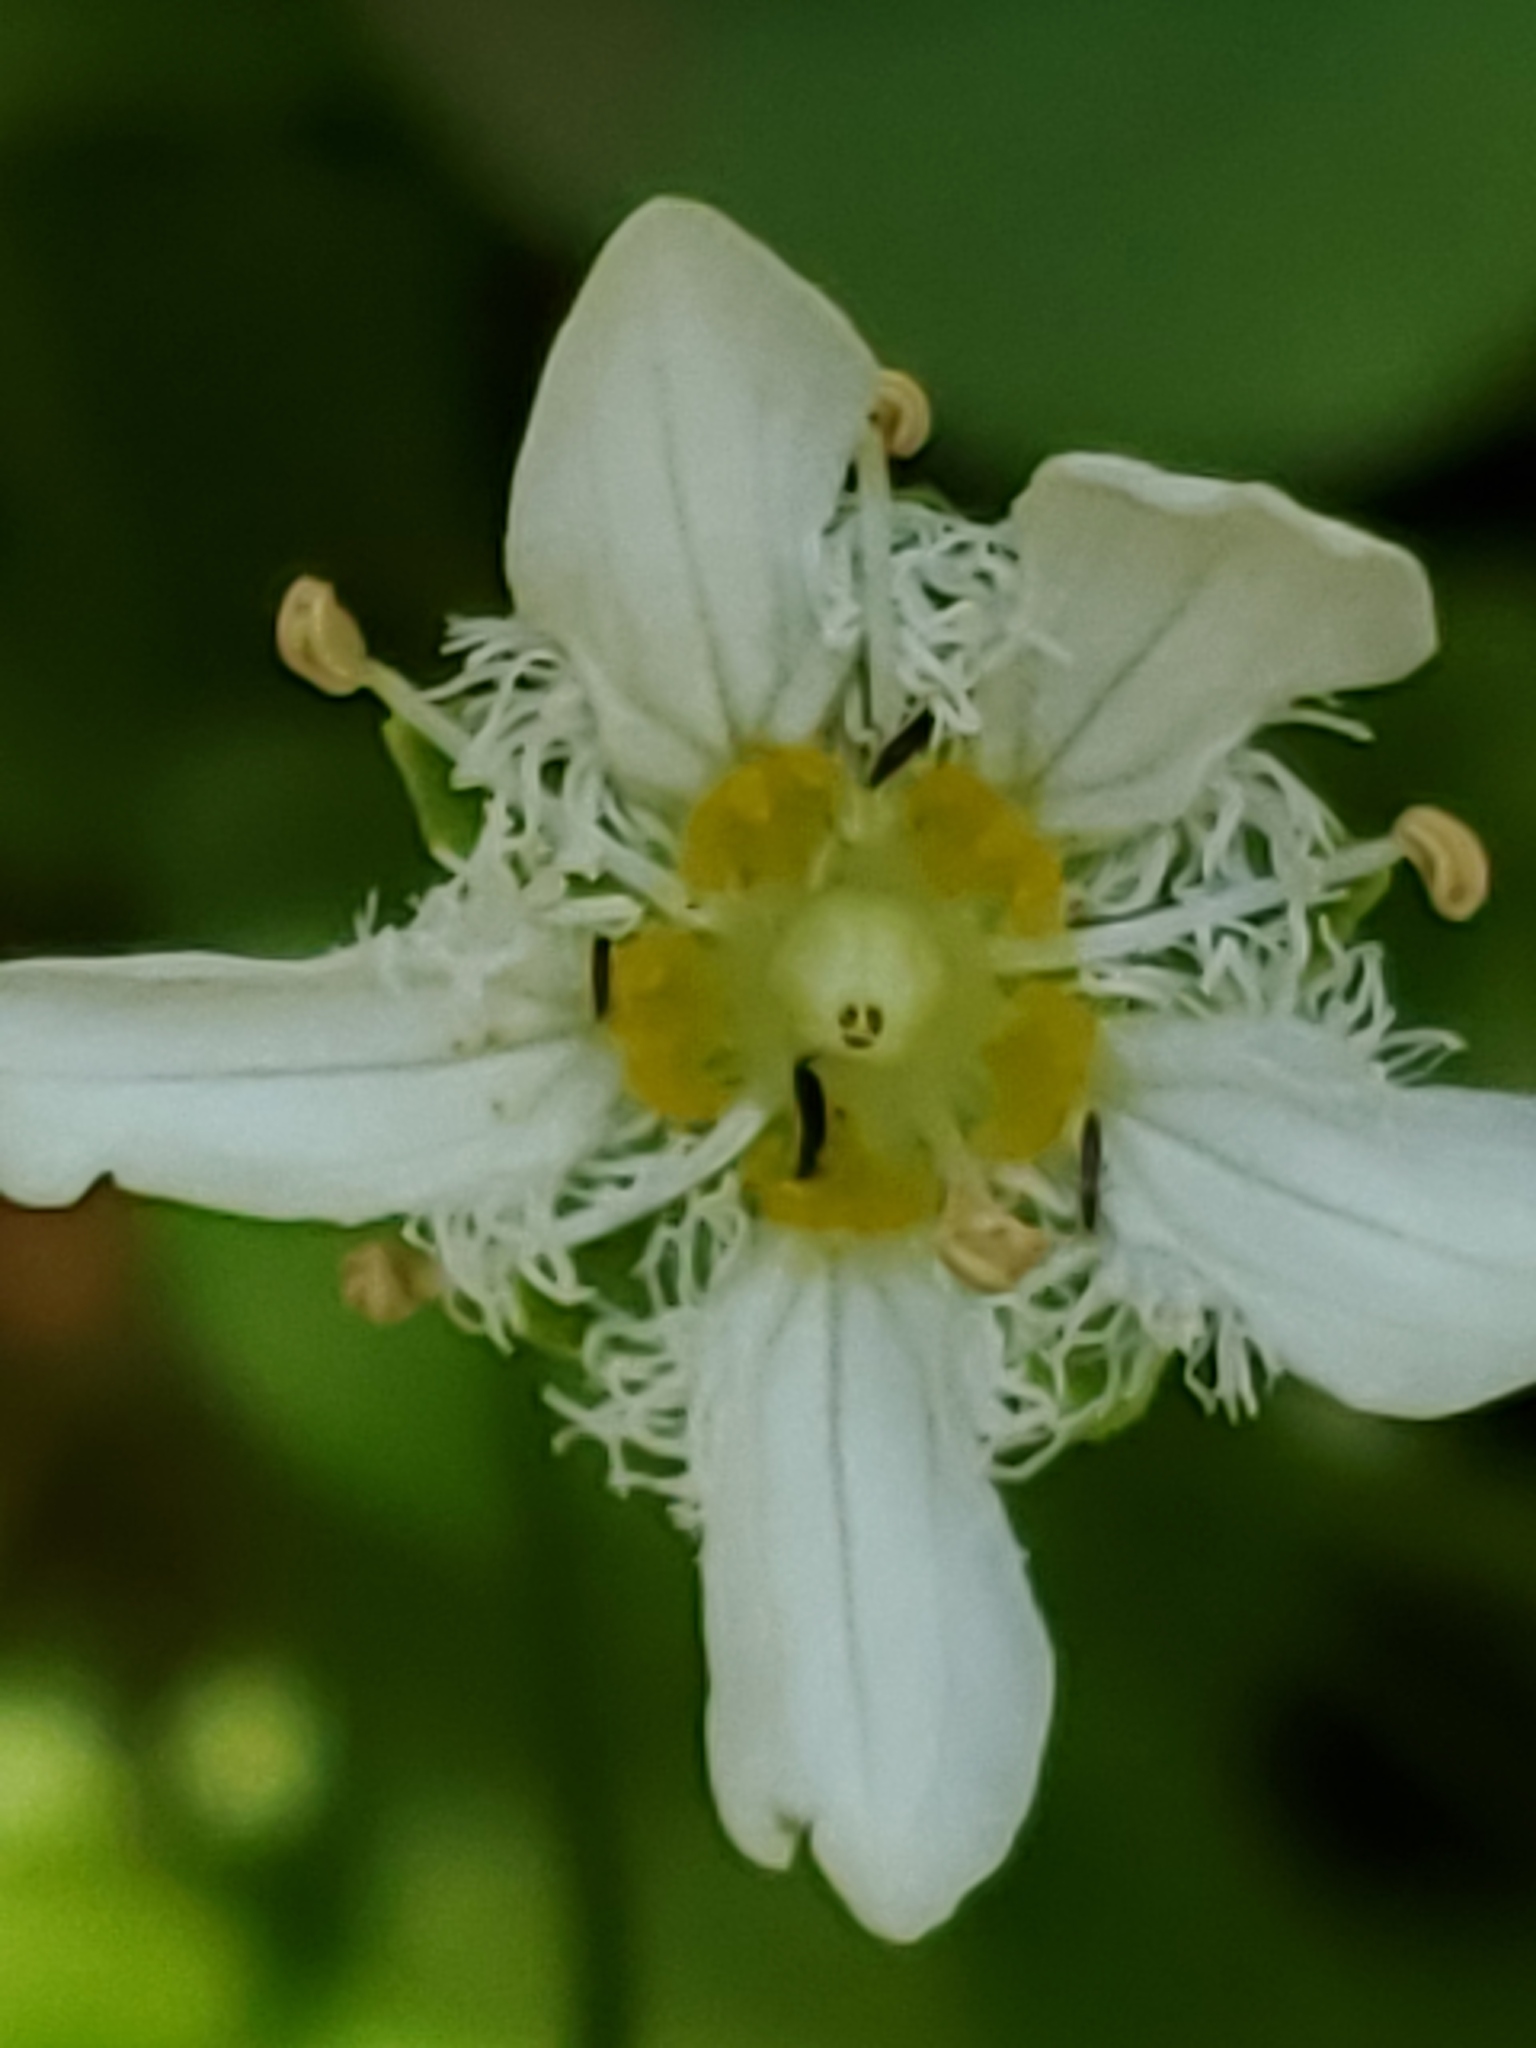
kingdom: Plantae
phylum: Tracheophyta
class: Magnoliopsida
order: Celastrales
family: Parnassiaceae
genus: Parnassia
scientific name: Parnassia fimbriata
